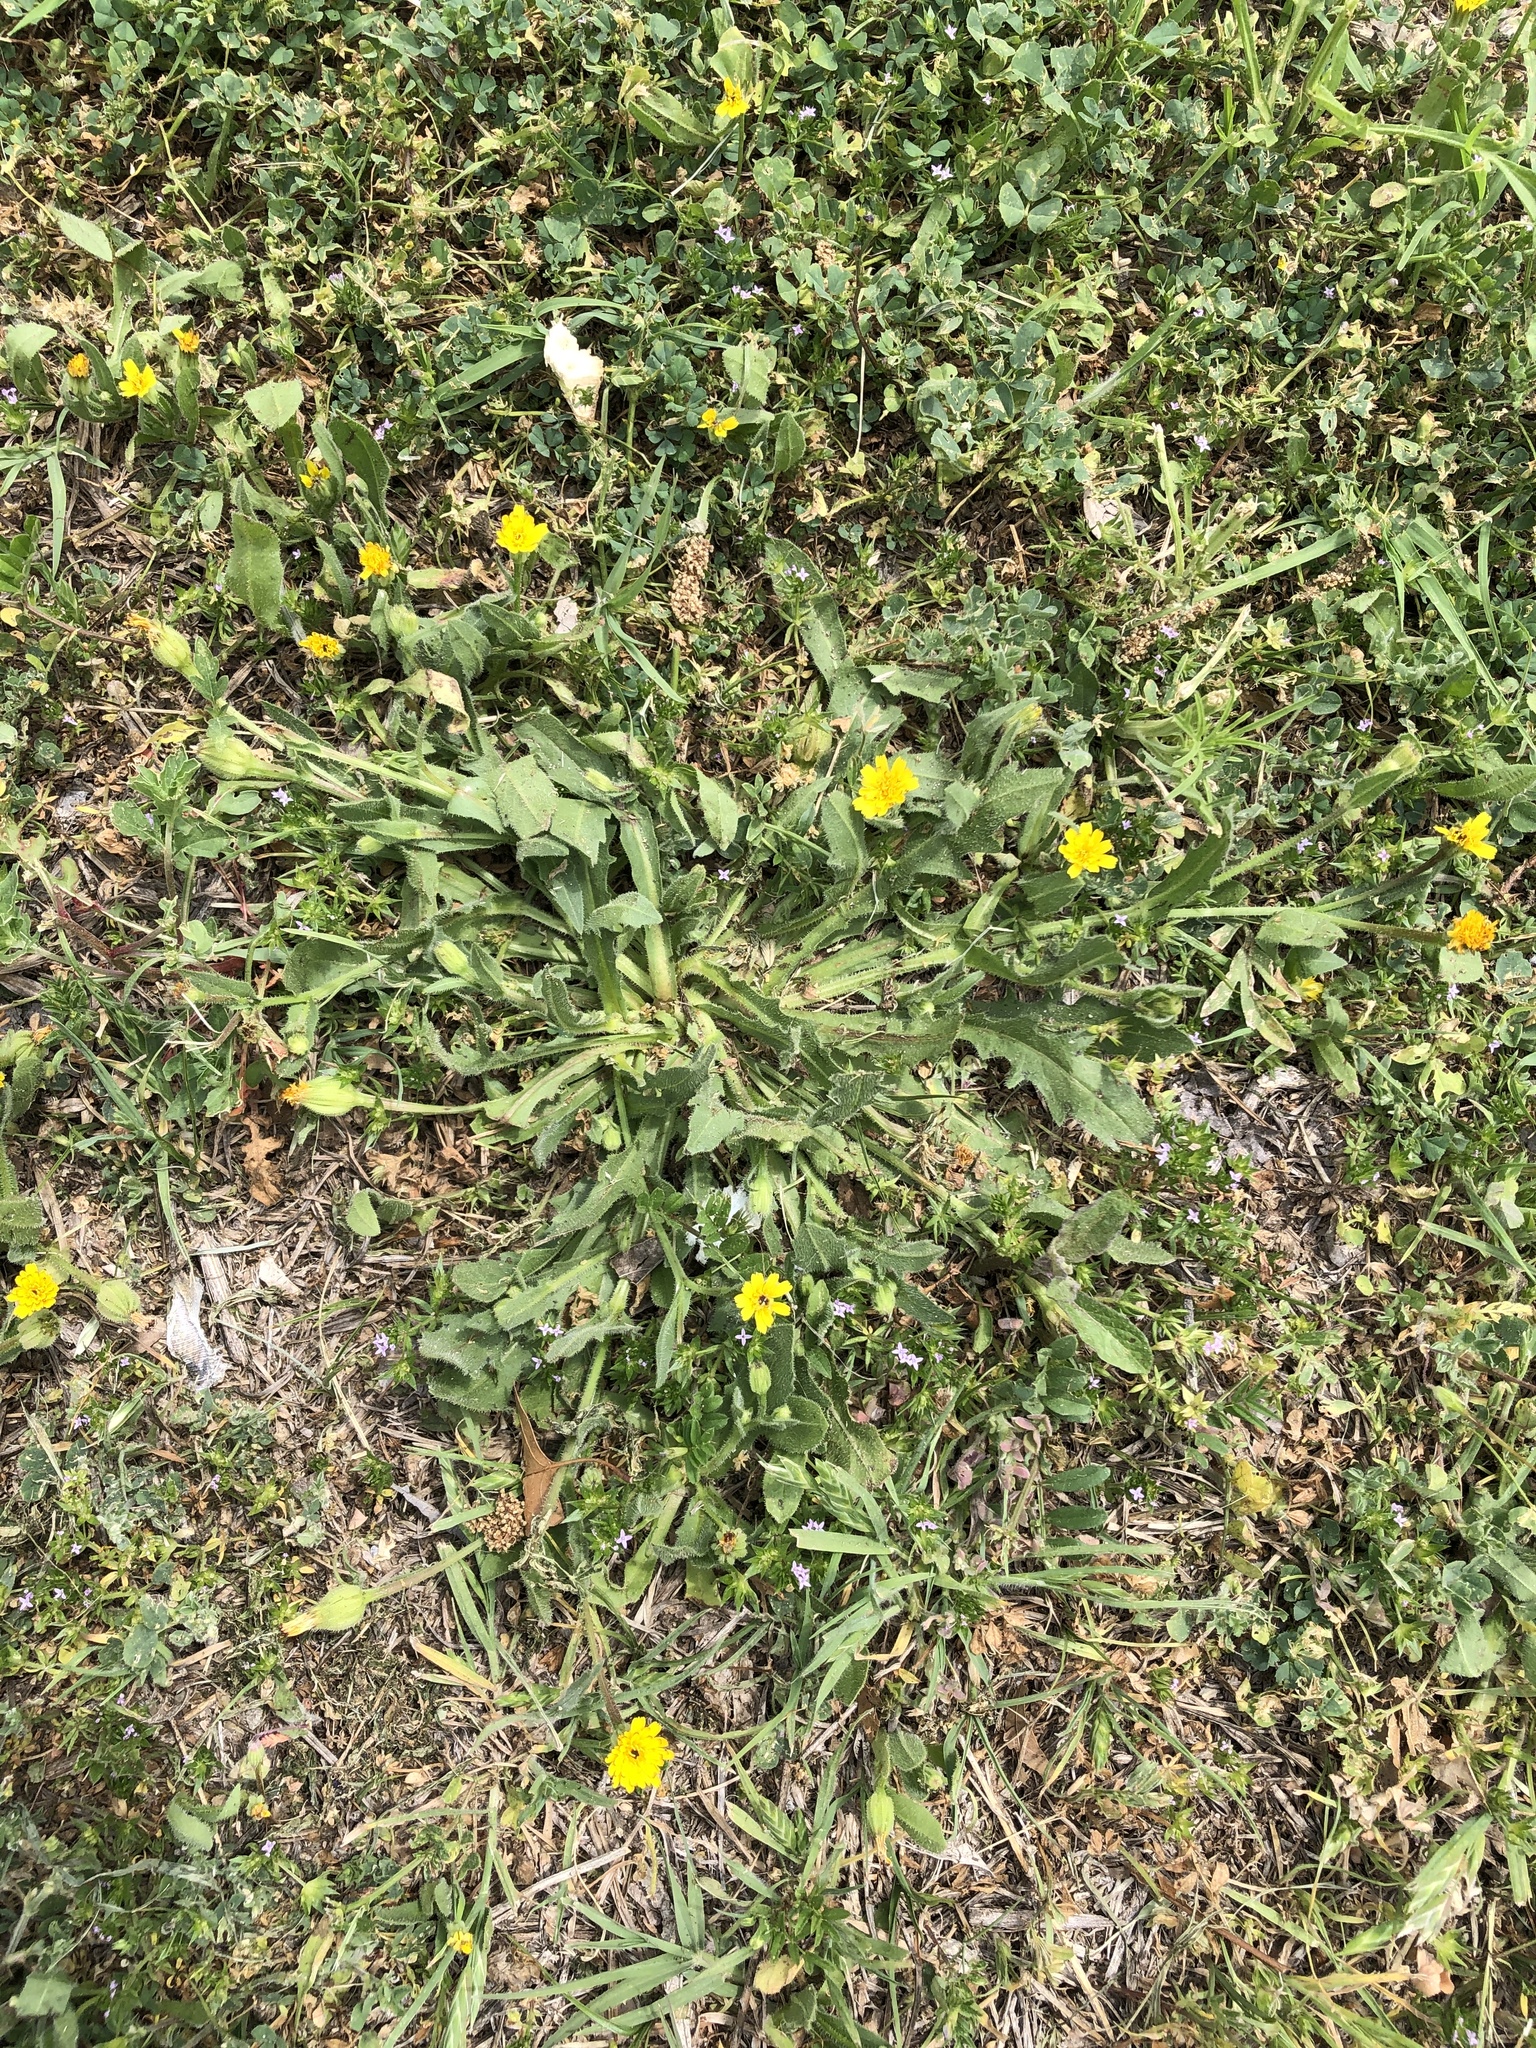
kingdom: Plantae
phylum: Tracheophyta
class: Magnoliopsida
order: Asterales
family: Asteraceae
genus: Hedypnois
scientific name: Hedypnois rhagadioloides
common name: Cretan weed
